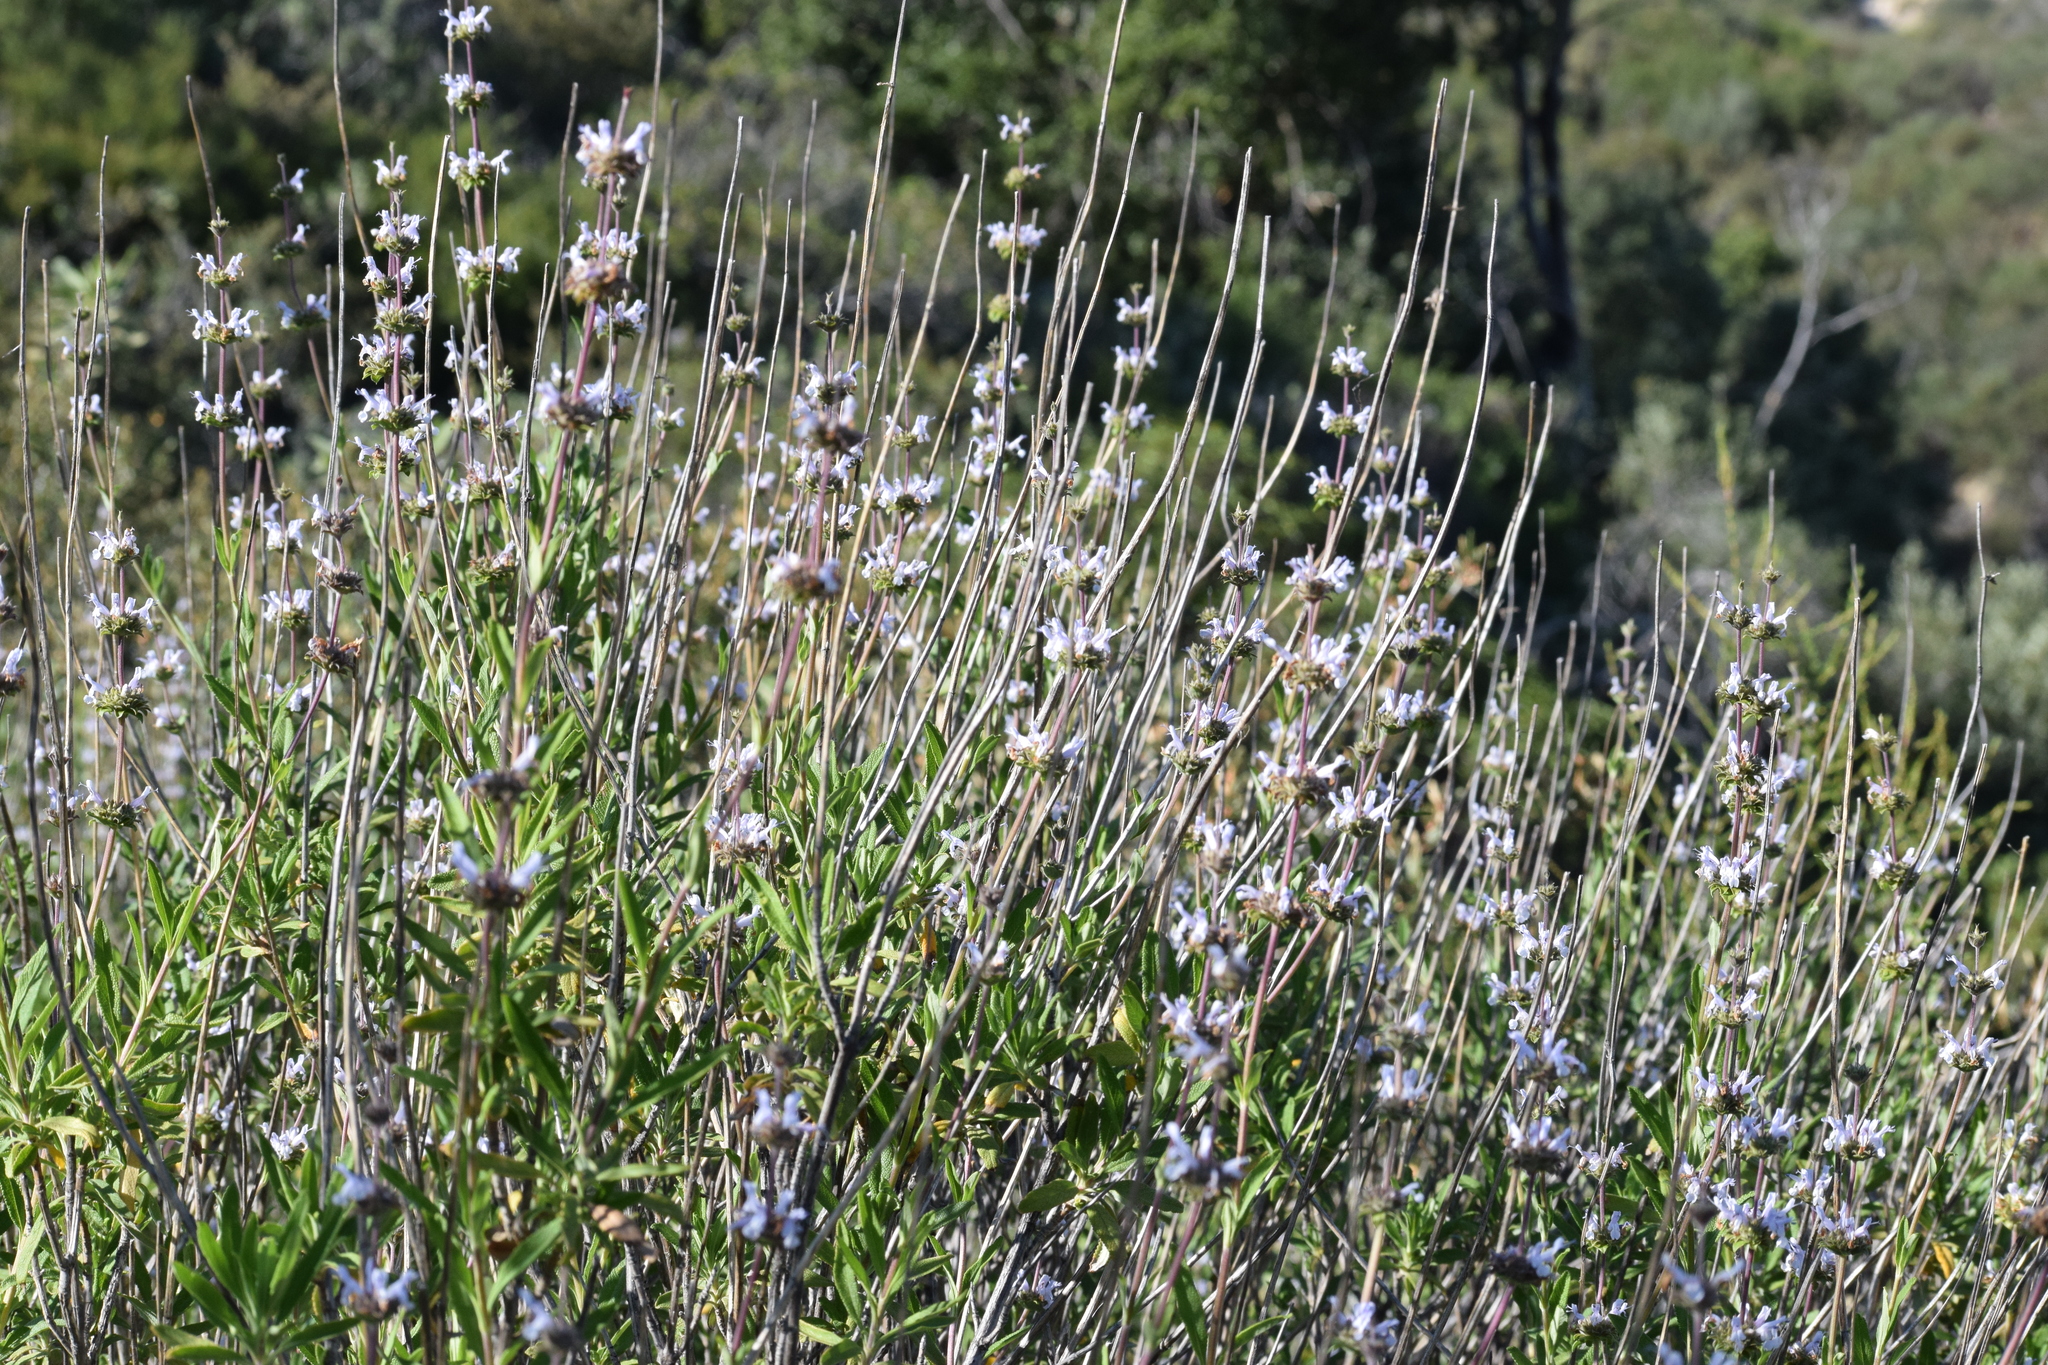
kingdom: Plantae
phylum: Tracheophyta
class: Magnoliopsida
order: Lamiales
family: Lamiaceae
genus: Salvia
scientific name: Salvia mellifera
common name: Black sage
